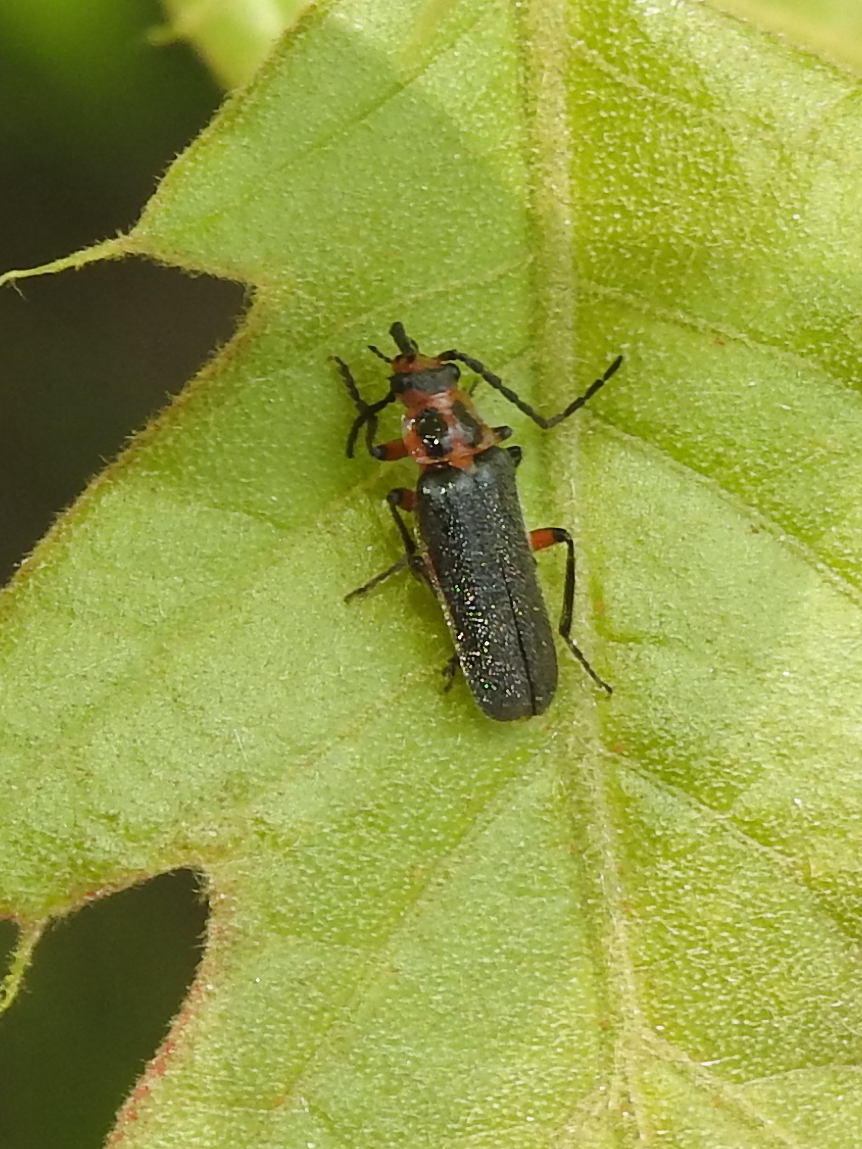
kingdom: Animalia
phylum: Arthropoda
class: Insecta
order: Coleoptera
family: Cantharidae
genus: Atalantycha
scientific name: Atalantycha bilineata
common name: Two-lined leatherwing
